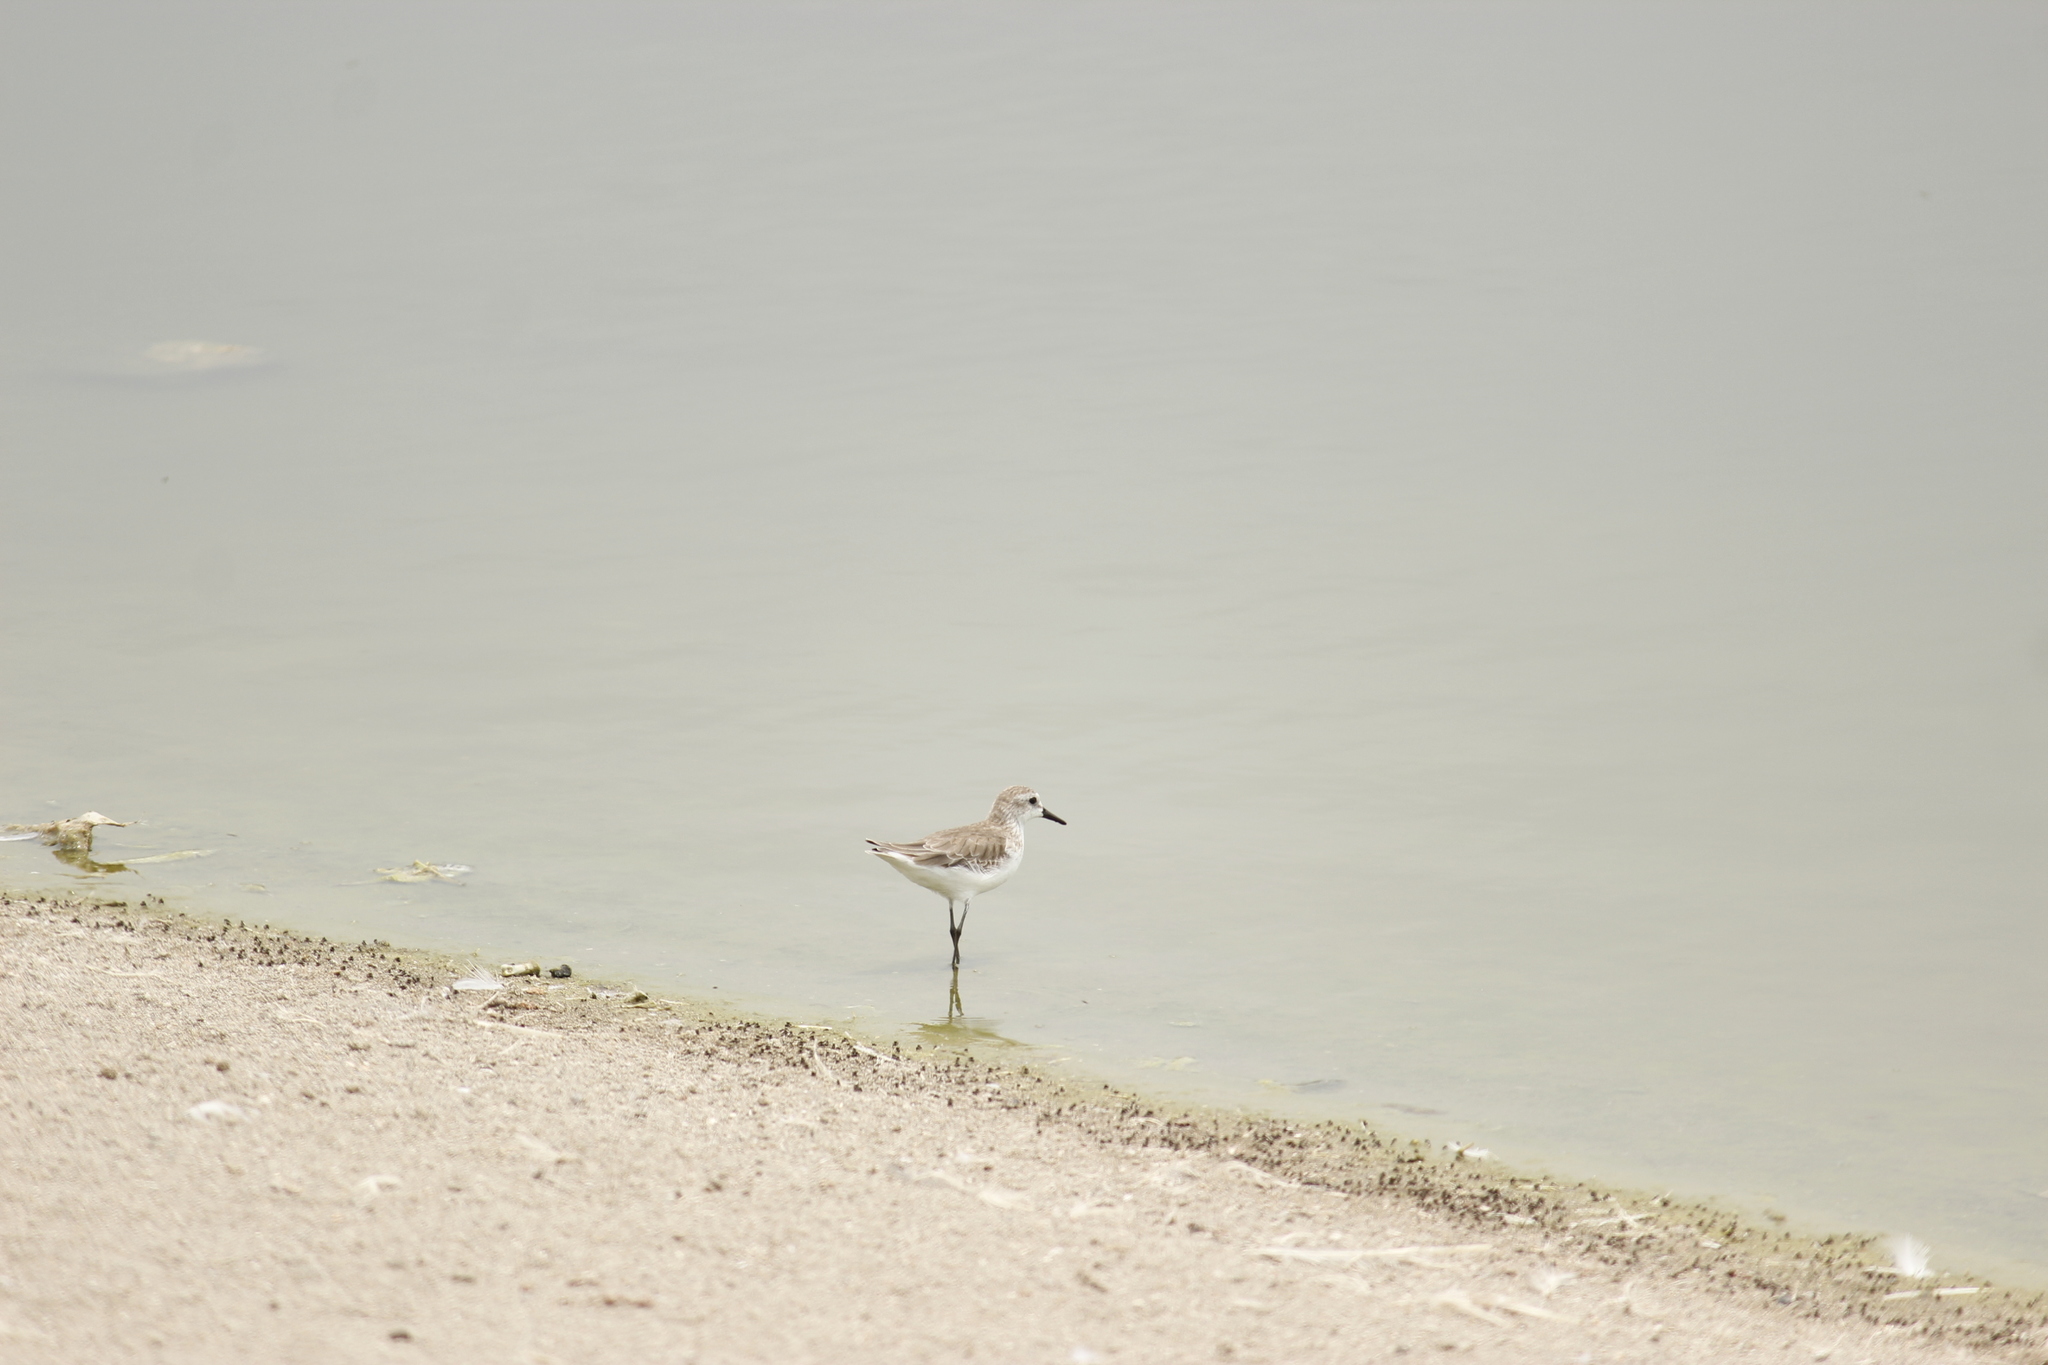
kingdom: Animalia
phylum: Chordata
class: Aves
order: Charadriiformes
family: Scolopacidae
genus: Calidris
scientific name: Calidris pusilla
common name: Semipalmated sandpiper
